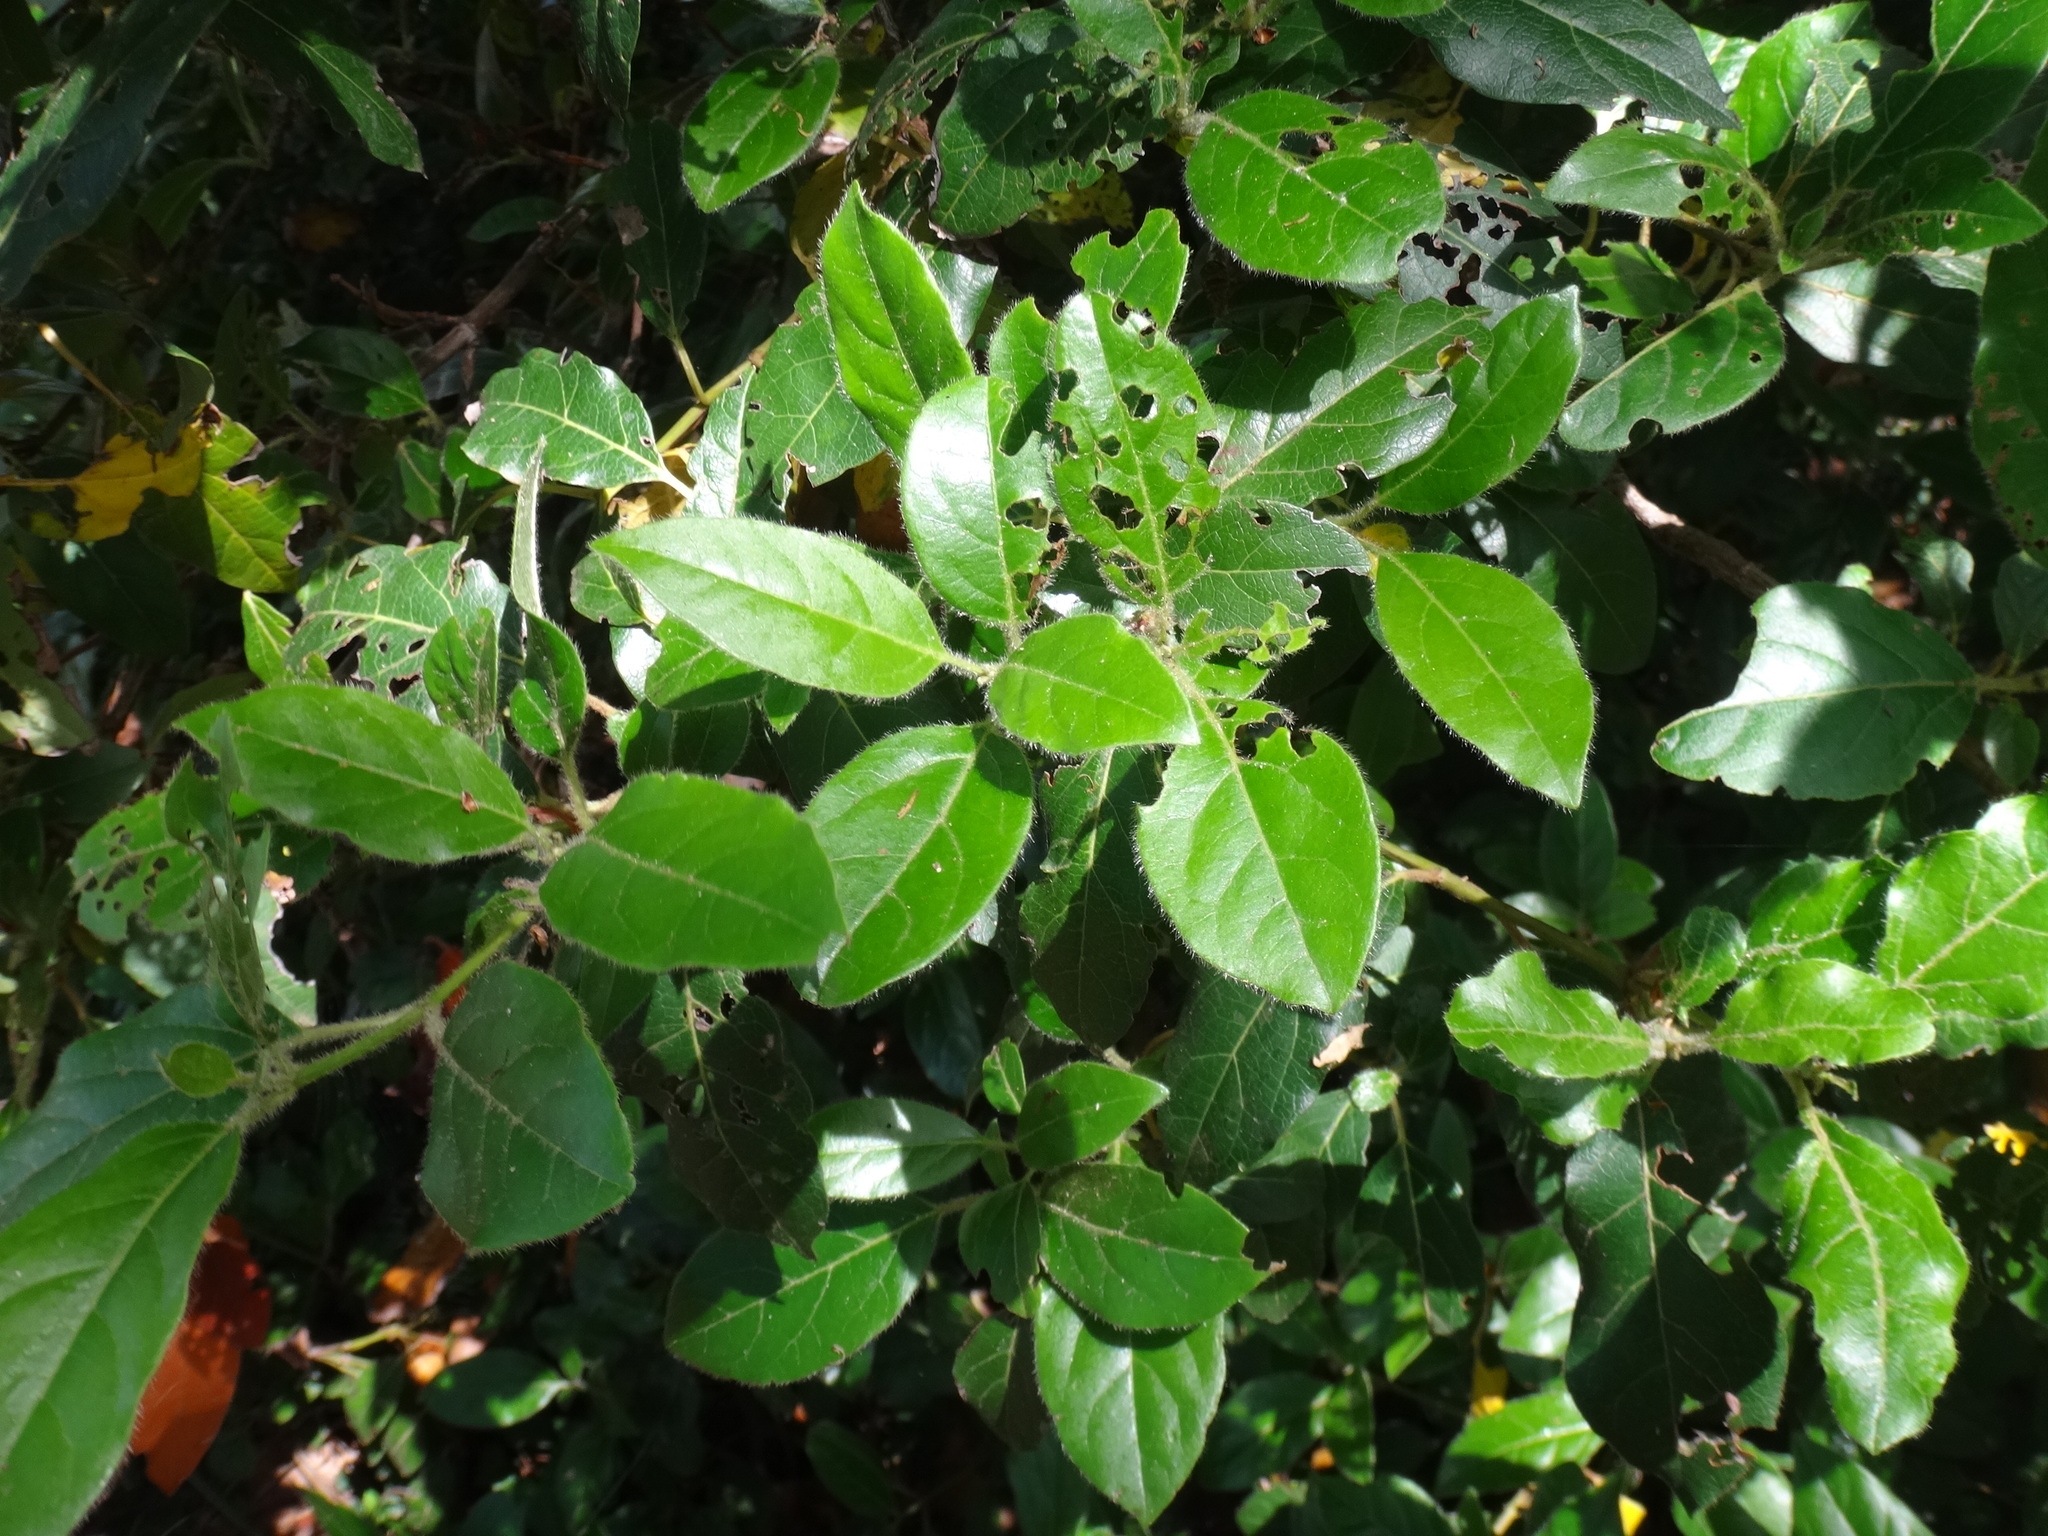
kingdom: Plantae
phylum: Tracheophyta
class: Magnoliopsida
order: Dipsacales
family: Viburnaceae
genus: Viburnum
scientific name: Viburnum tinus
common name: Laurustinus
